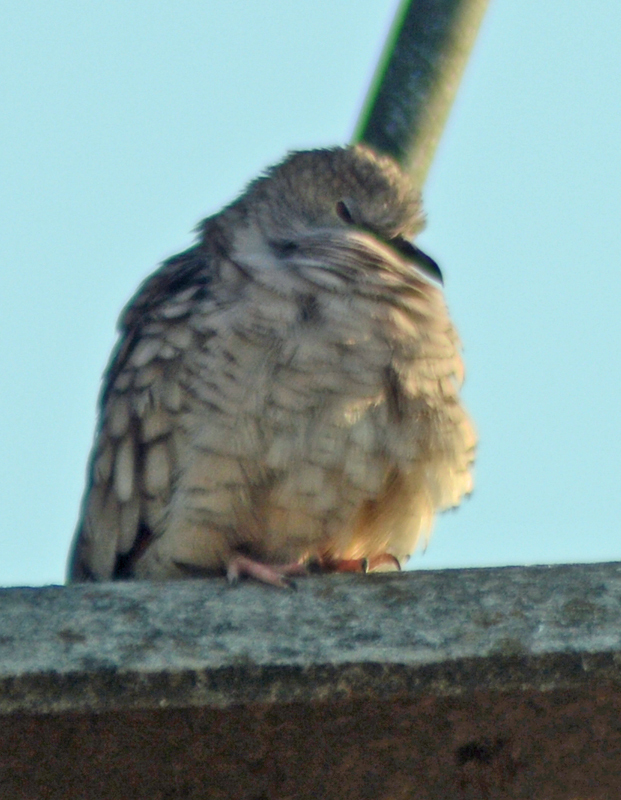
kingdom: Animalia
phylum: Chordata
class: Aves
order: Columbiformes
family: Columbidae
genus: Columbina
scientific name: Columbina inca
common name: Inca dove
